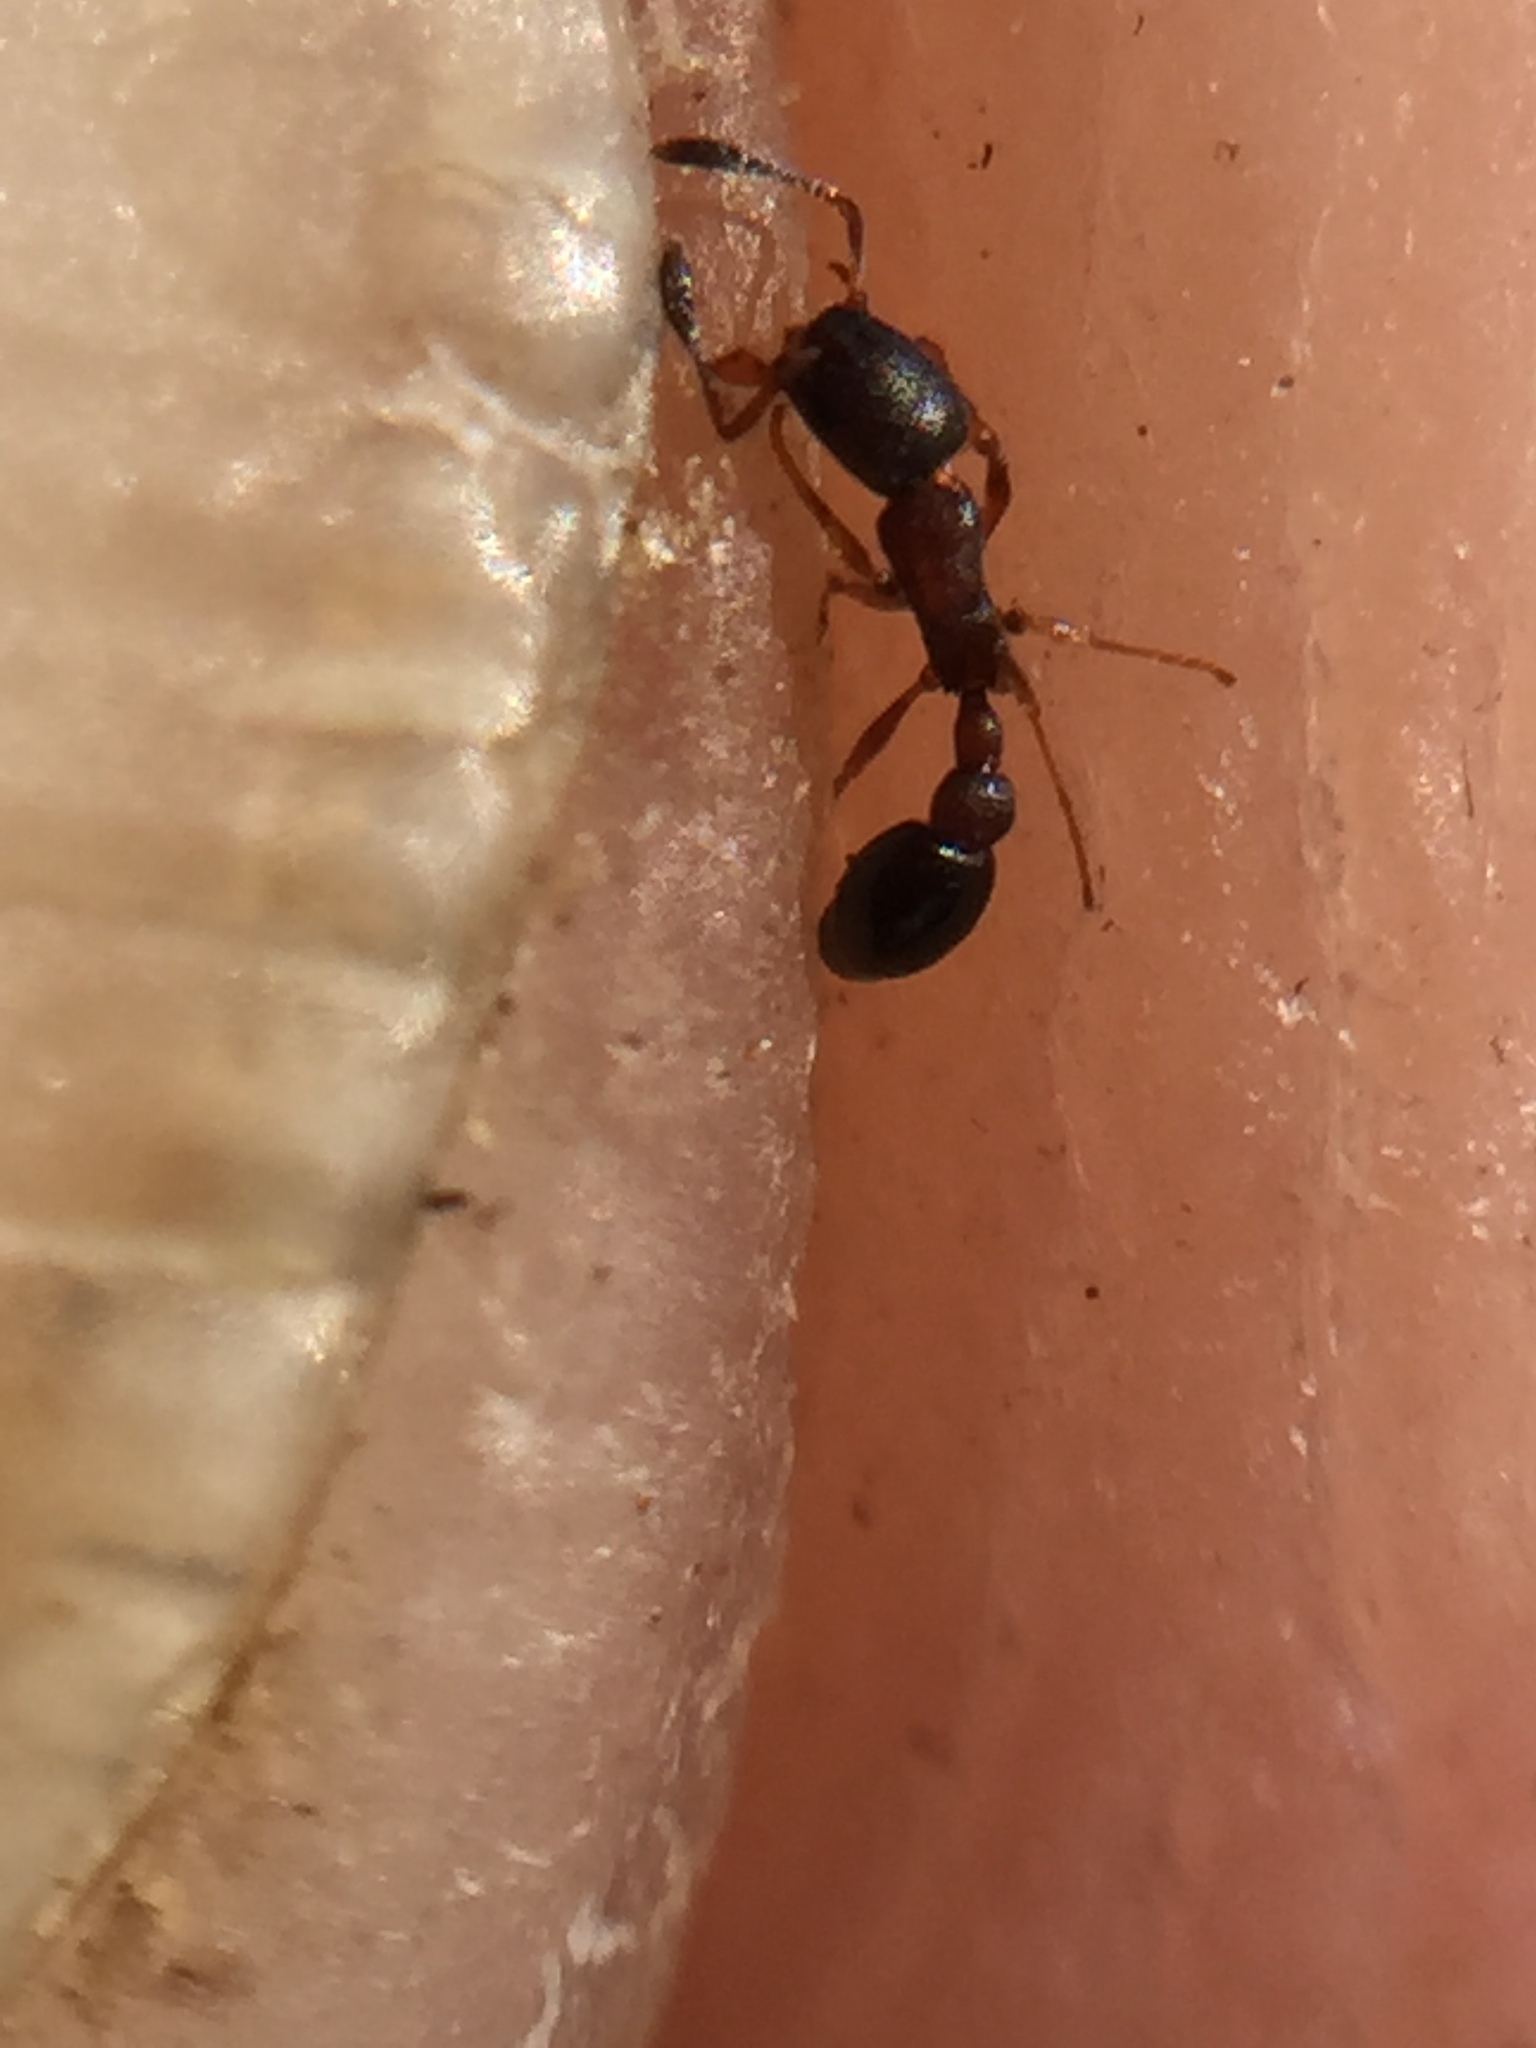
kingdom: Animalia
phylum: Arthropoda
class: Insecta
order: Hymenoptera
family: Formicidae
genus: Cardiocondyla
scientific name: Cardiocondyla
